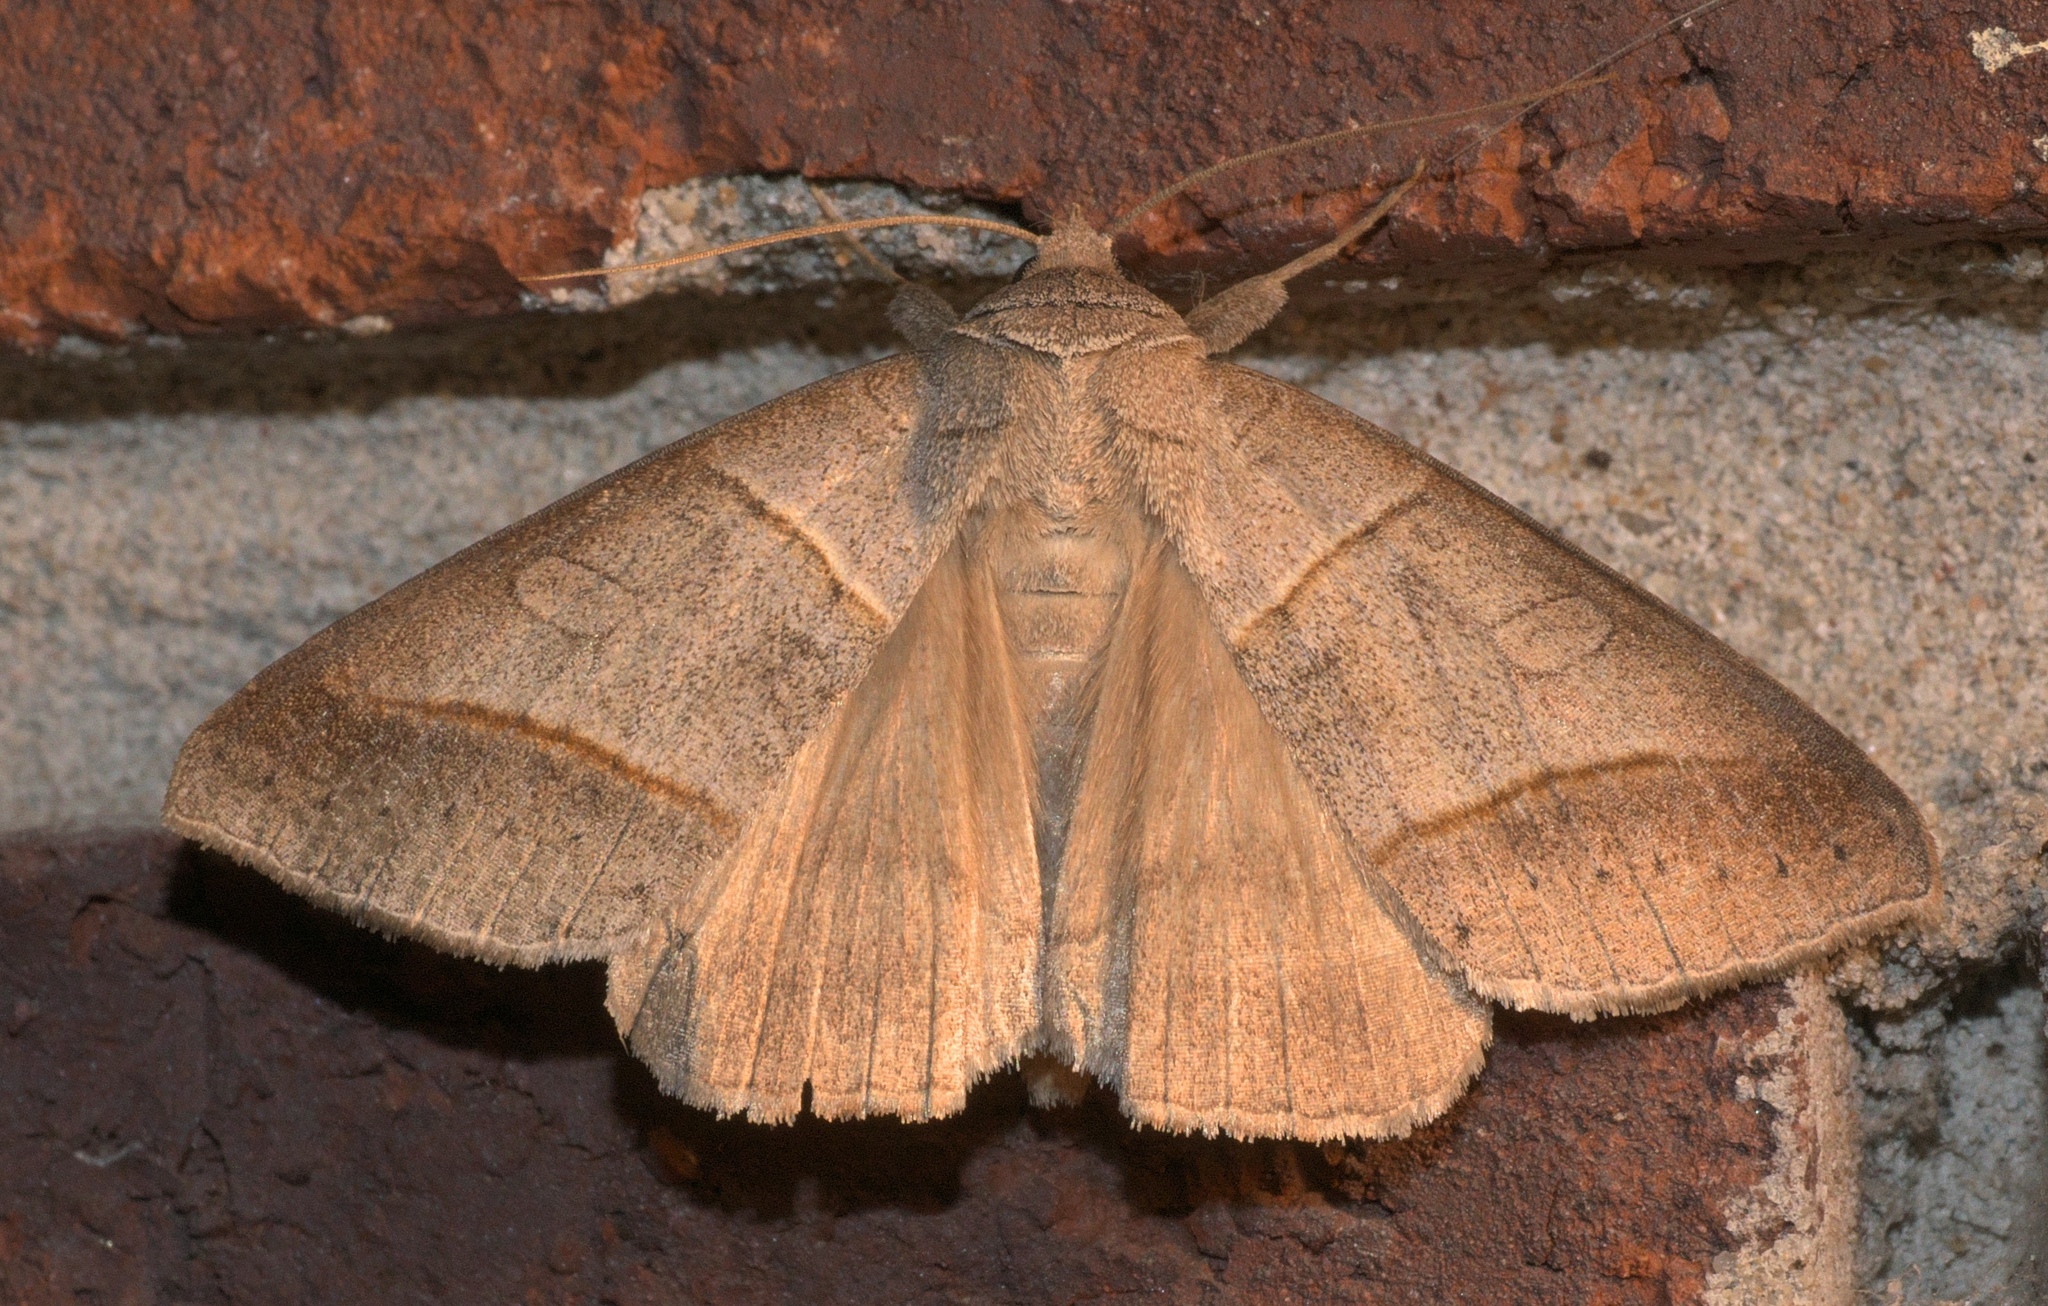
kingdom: Animalia
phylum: Arthropoda
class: Insecta
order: Lepidoptera
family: Erebidae
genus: Mocis
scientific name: Mocis texana
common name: Texas mocis moth
